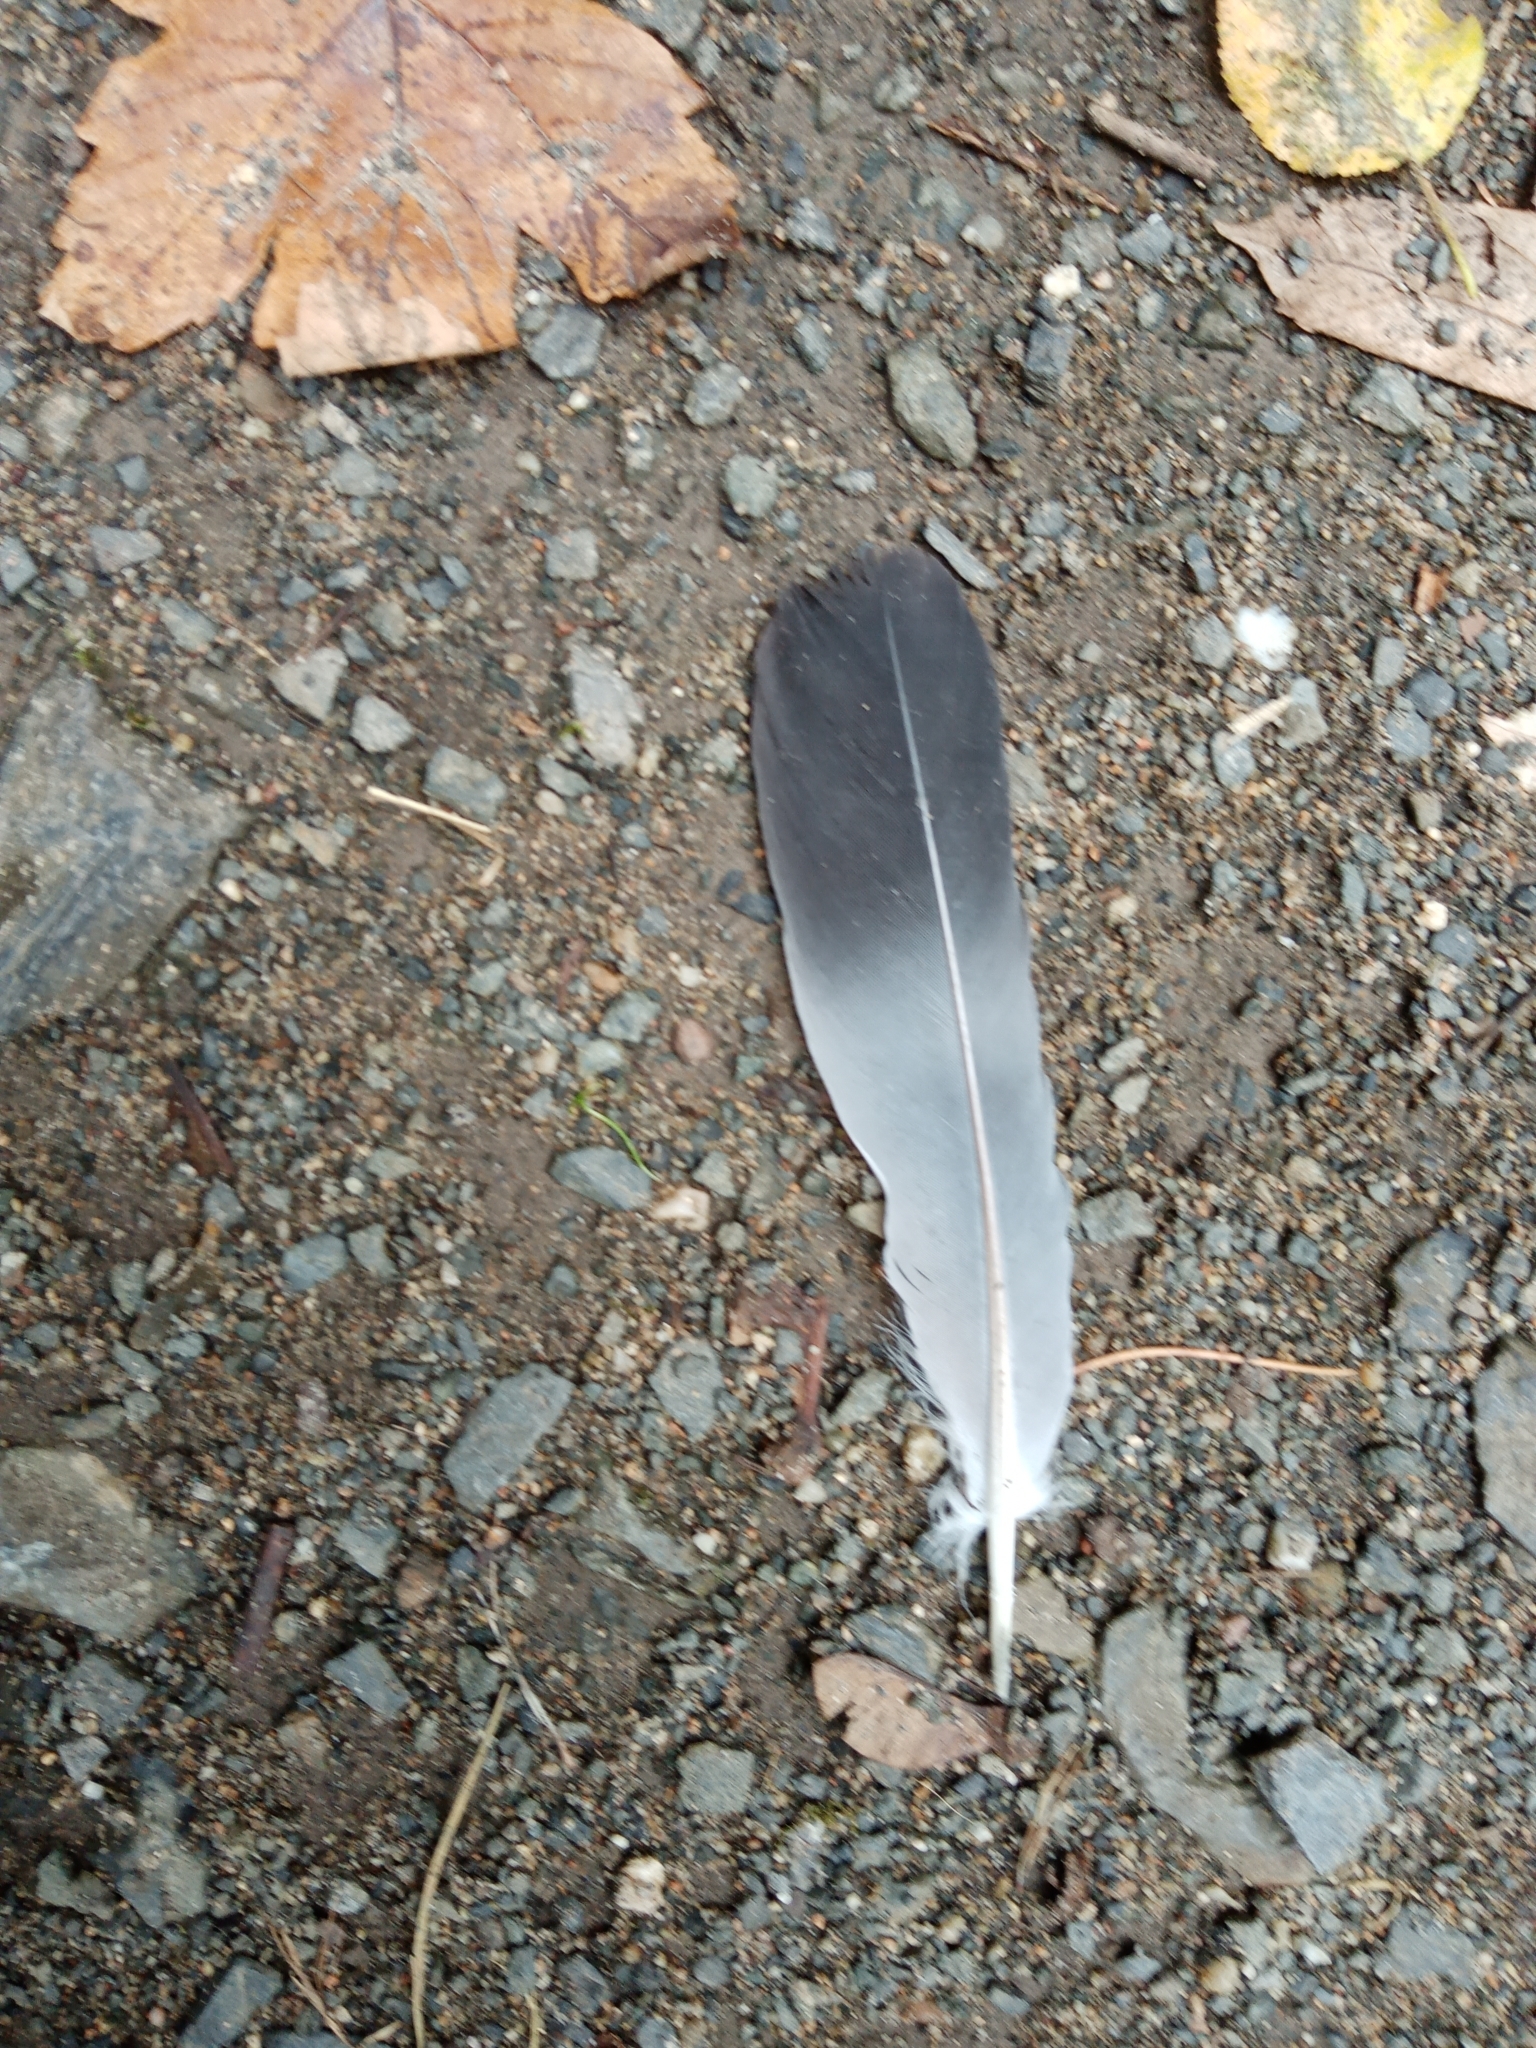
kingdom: Animalia
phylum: Chordata
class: Aves
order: Columbiformes
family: Columbidae
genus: Columba
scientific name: Columba palumbus
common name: Common wood pigeon
